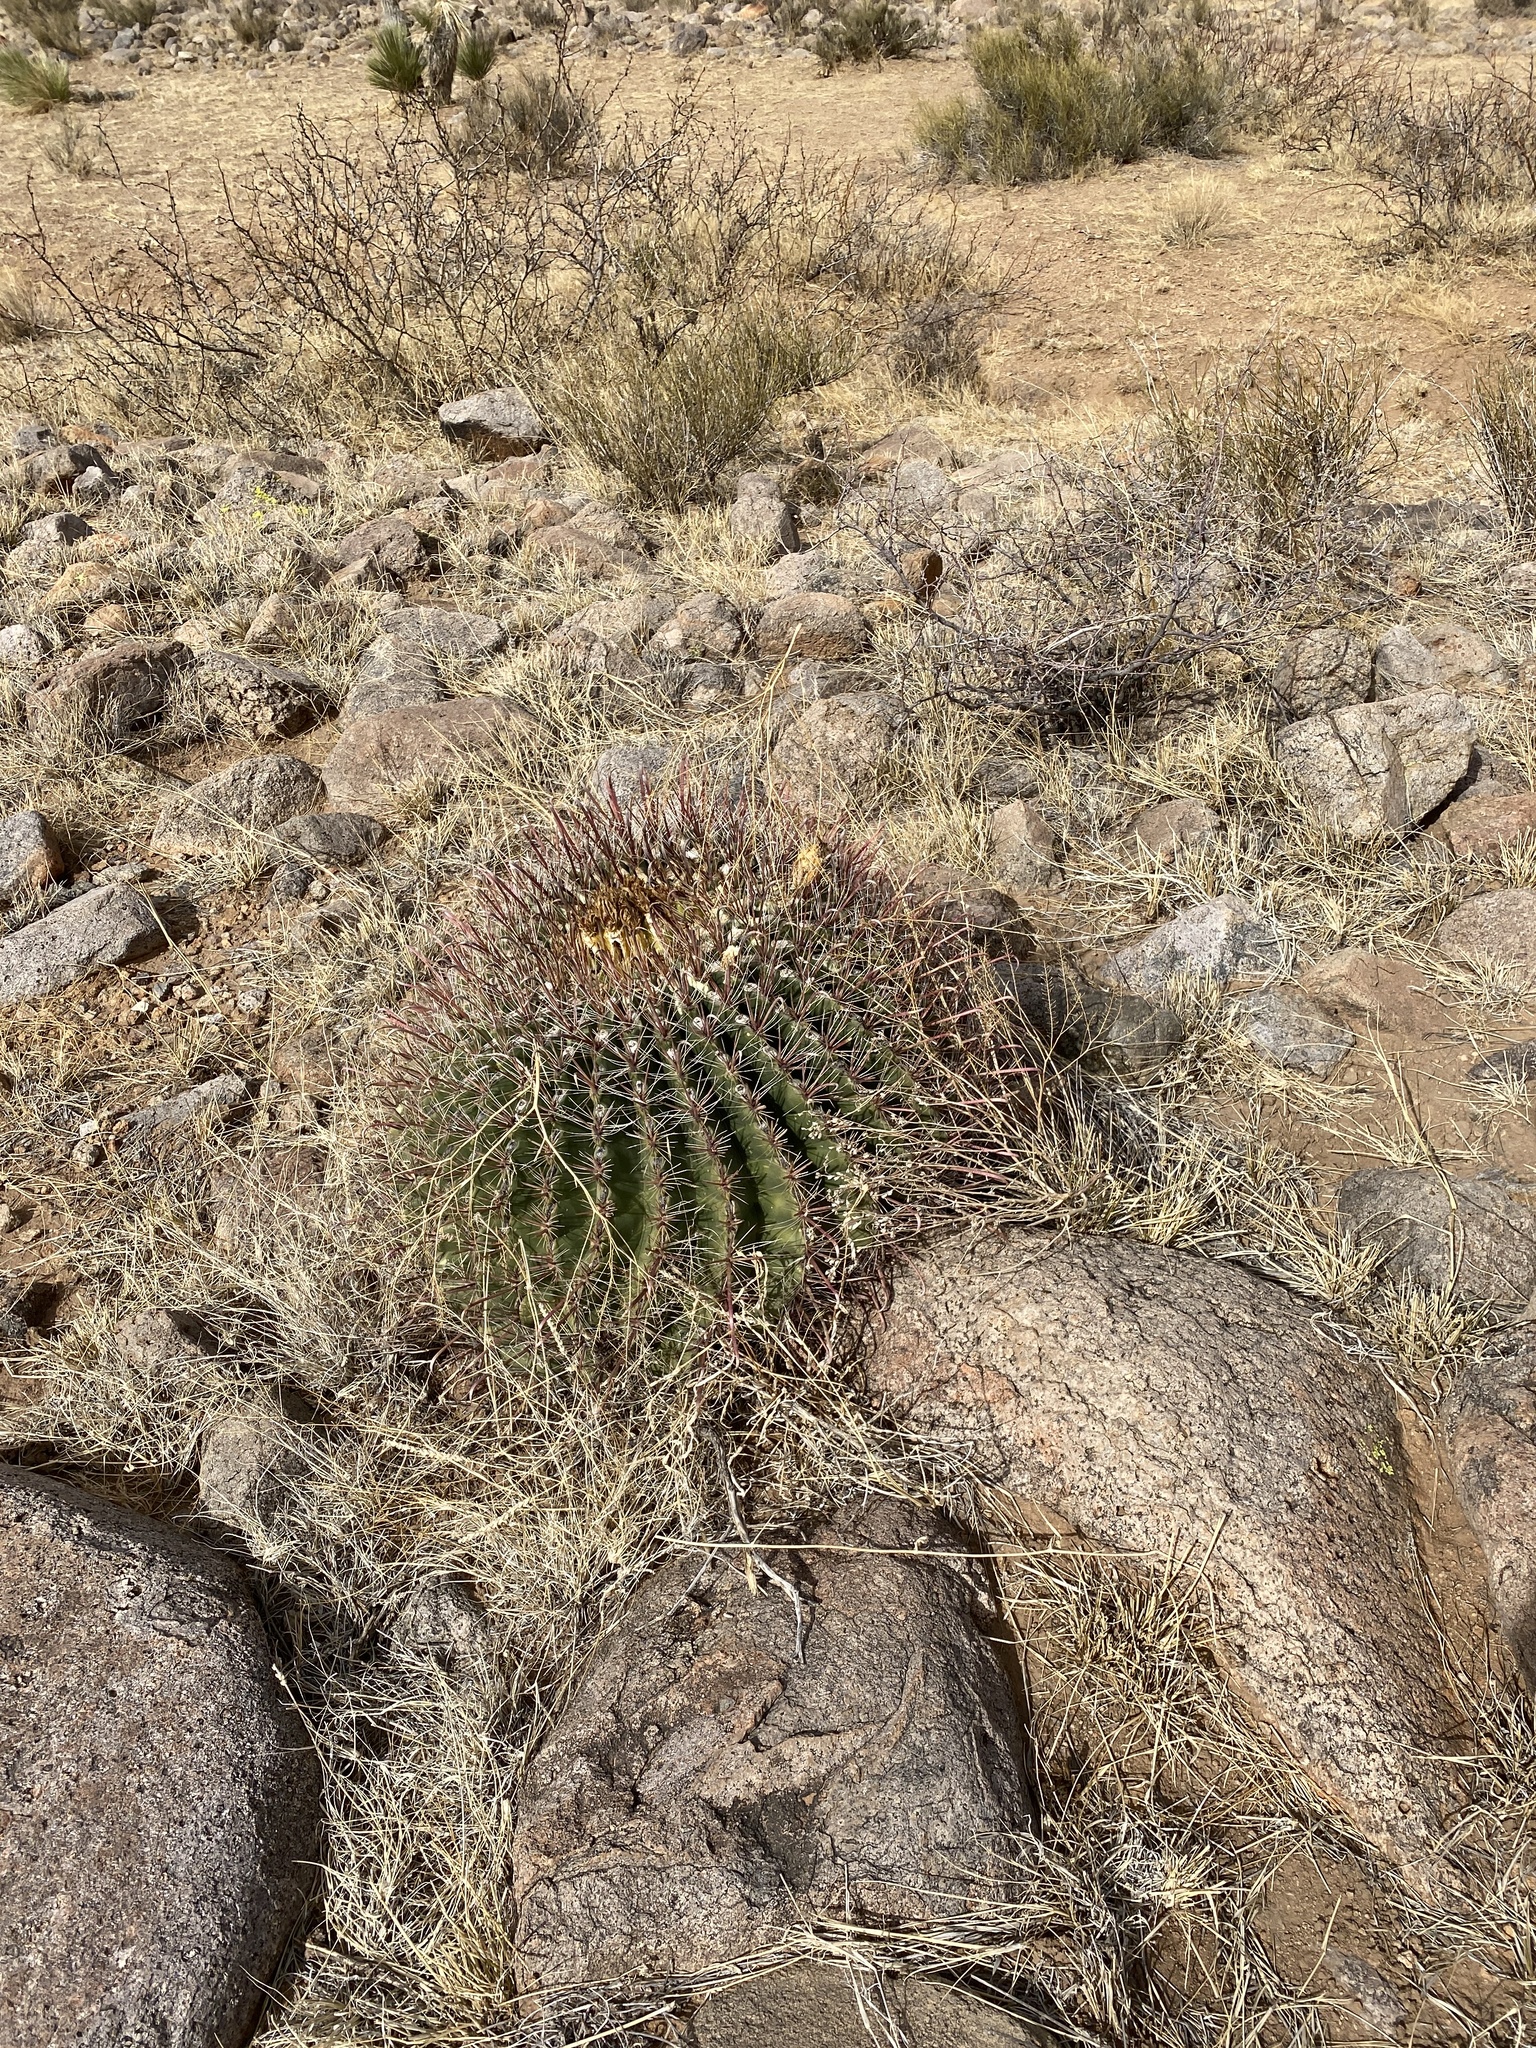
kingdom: Plantae
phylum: Tracheophyta
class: Magnoliopsida
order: Caryophyllales
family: Cactaceae
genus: Ferocactus
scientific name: Ferocactus wislizeni
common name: Candy barrel cactus
